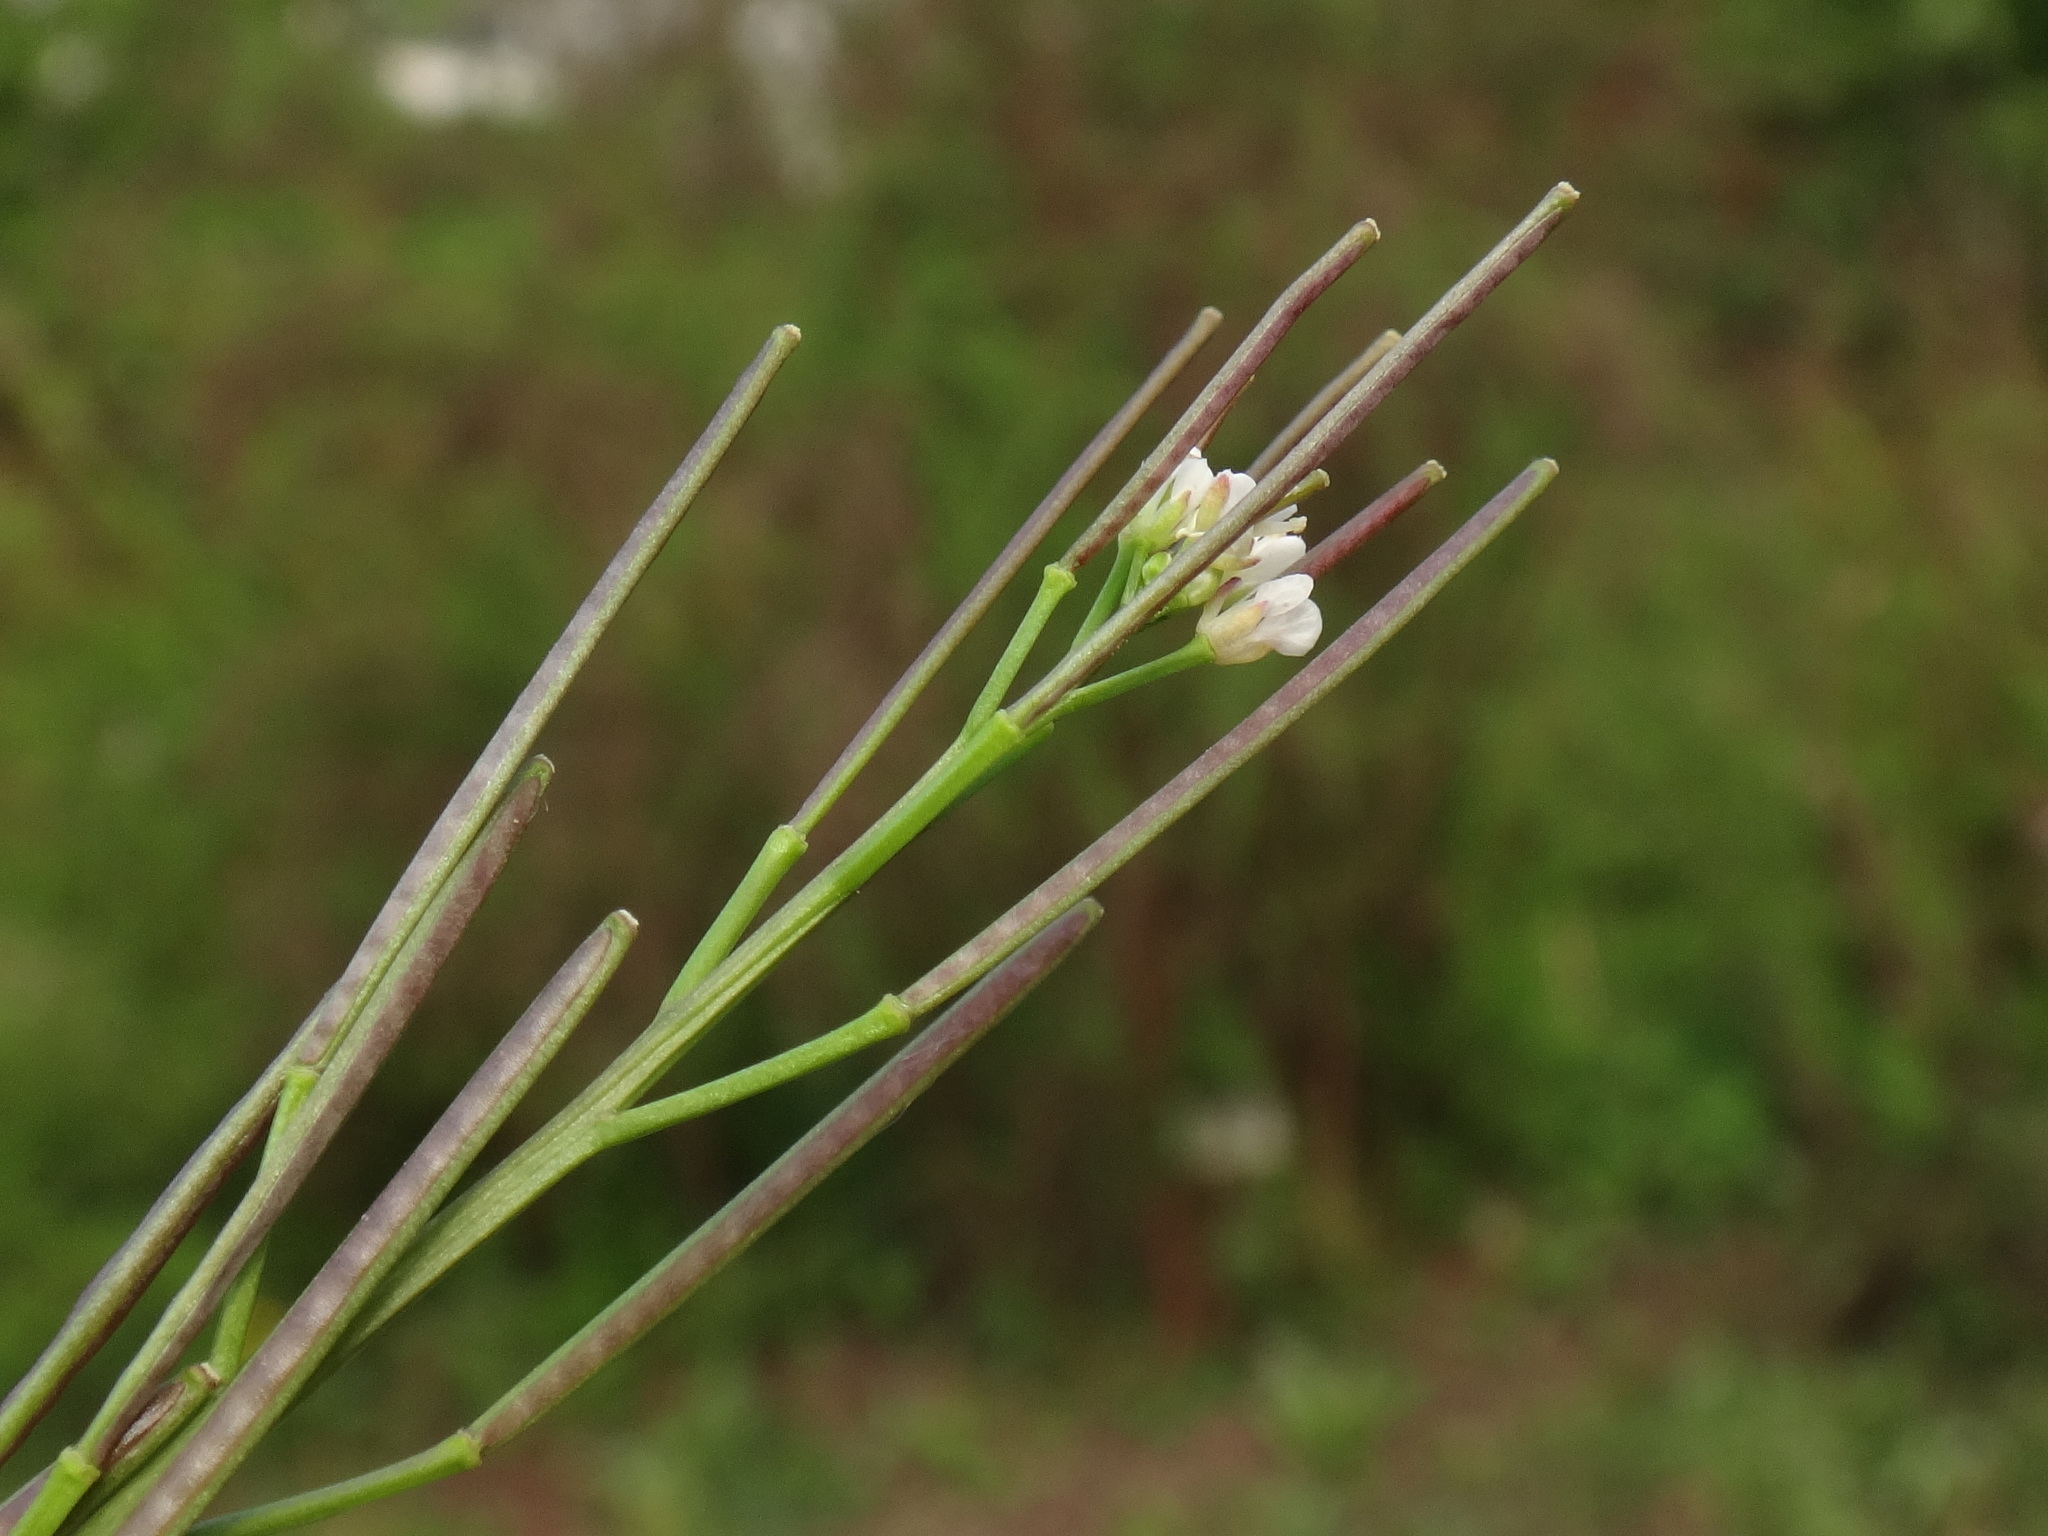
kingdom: Plantae
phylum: Tracheophyta
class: Magnoliopsida
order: Brassicales
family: Brassicaceae
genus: Cardamine
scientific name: Cardamine hirsuta
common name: Hairy bittercress
